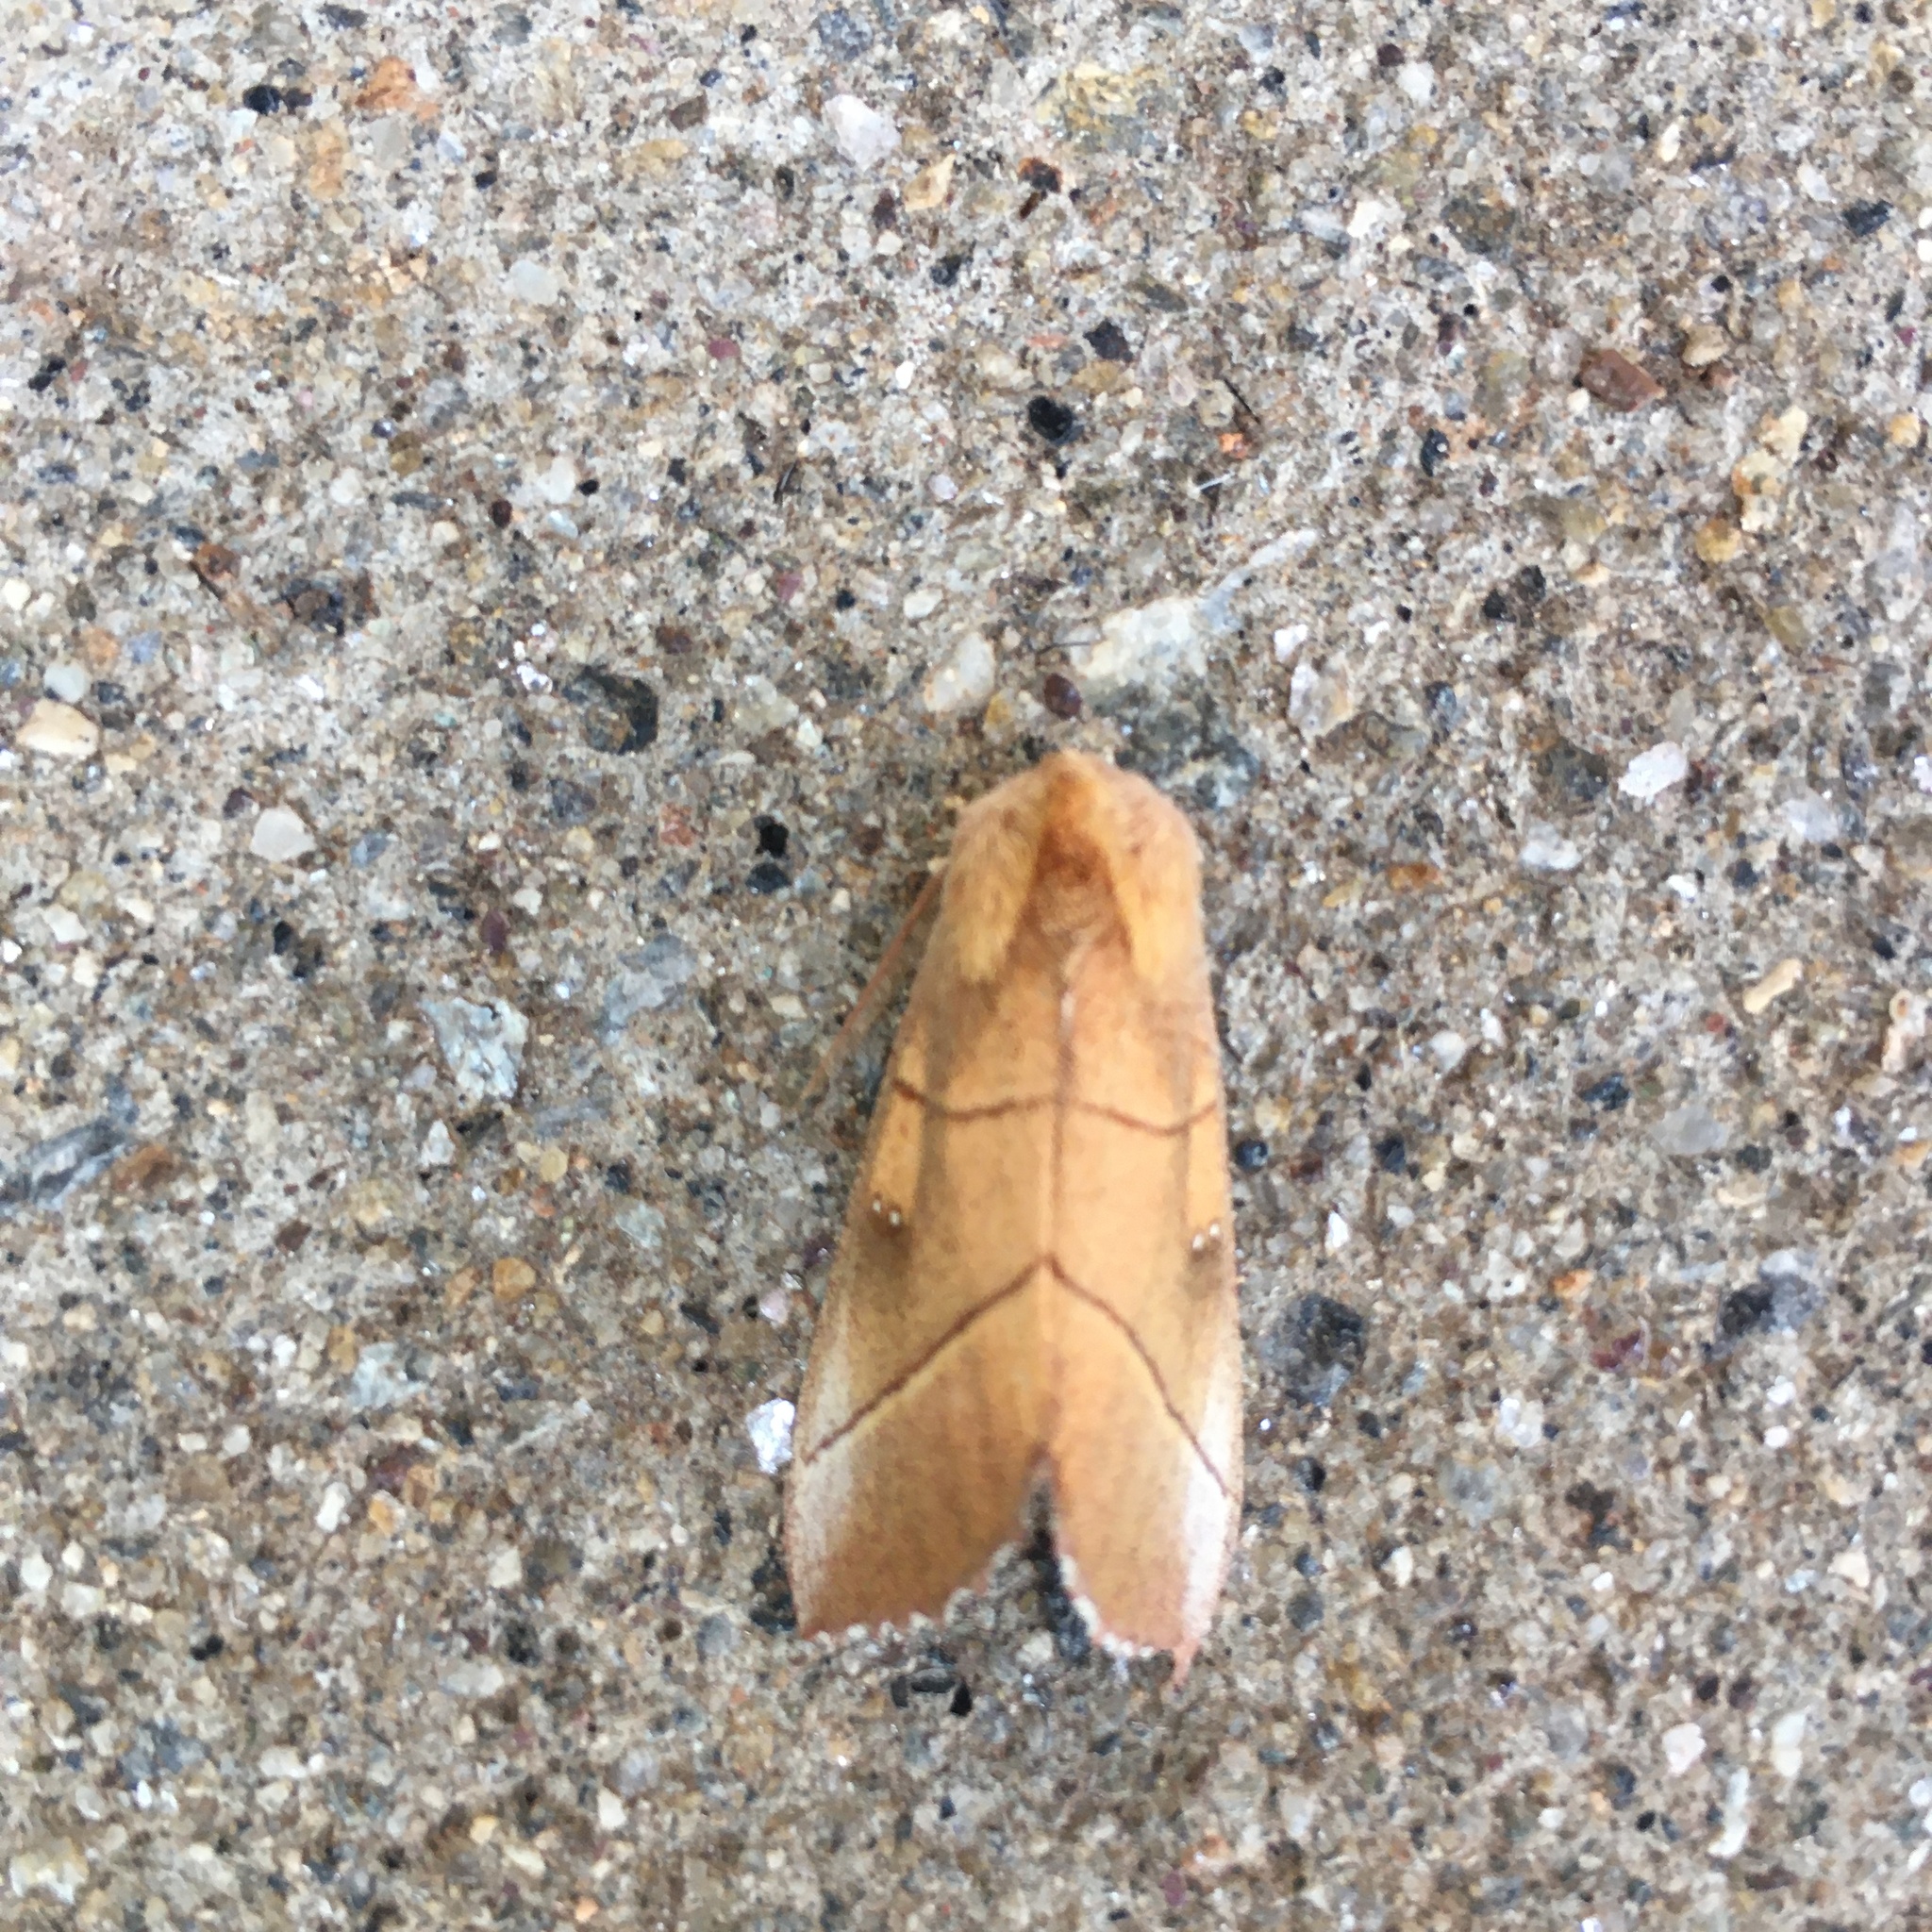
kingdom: Animalia
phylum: Arthropoda
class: Insecta
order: Lepidoptera
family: Notodontidae
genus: Nadata
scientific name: Nadata gibbosa
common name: White-dotted prominent
